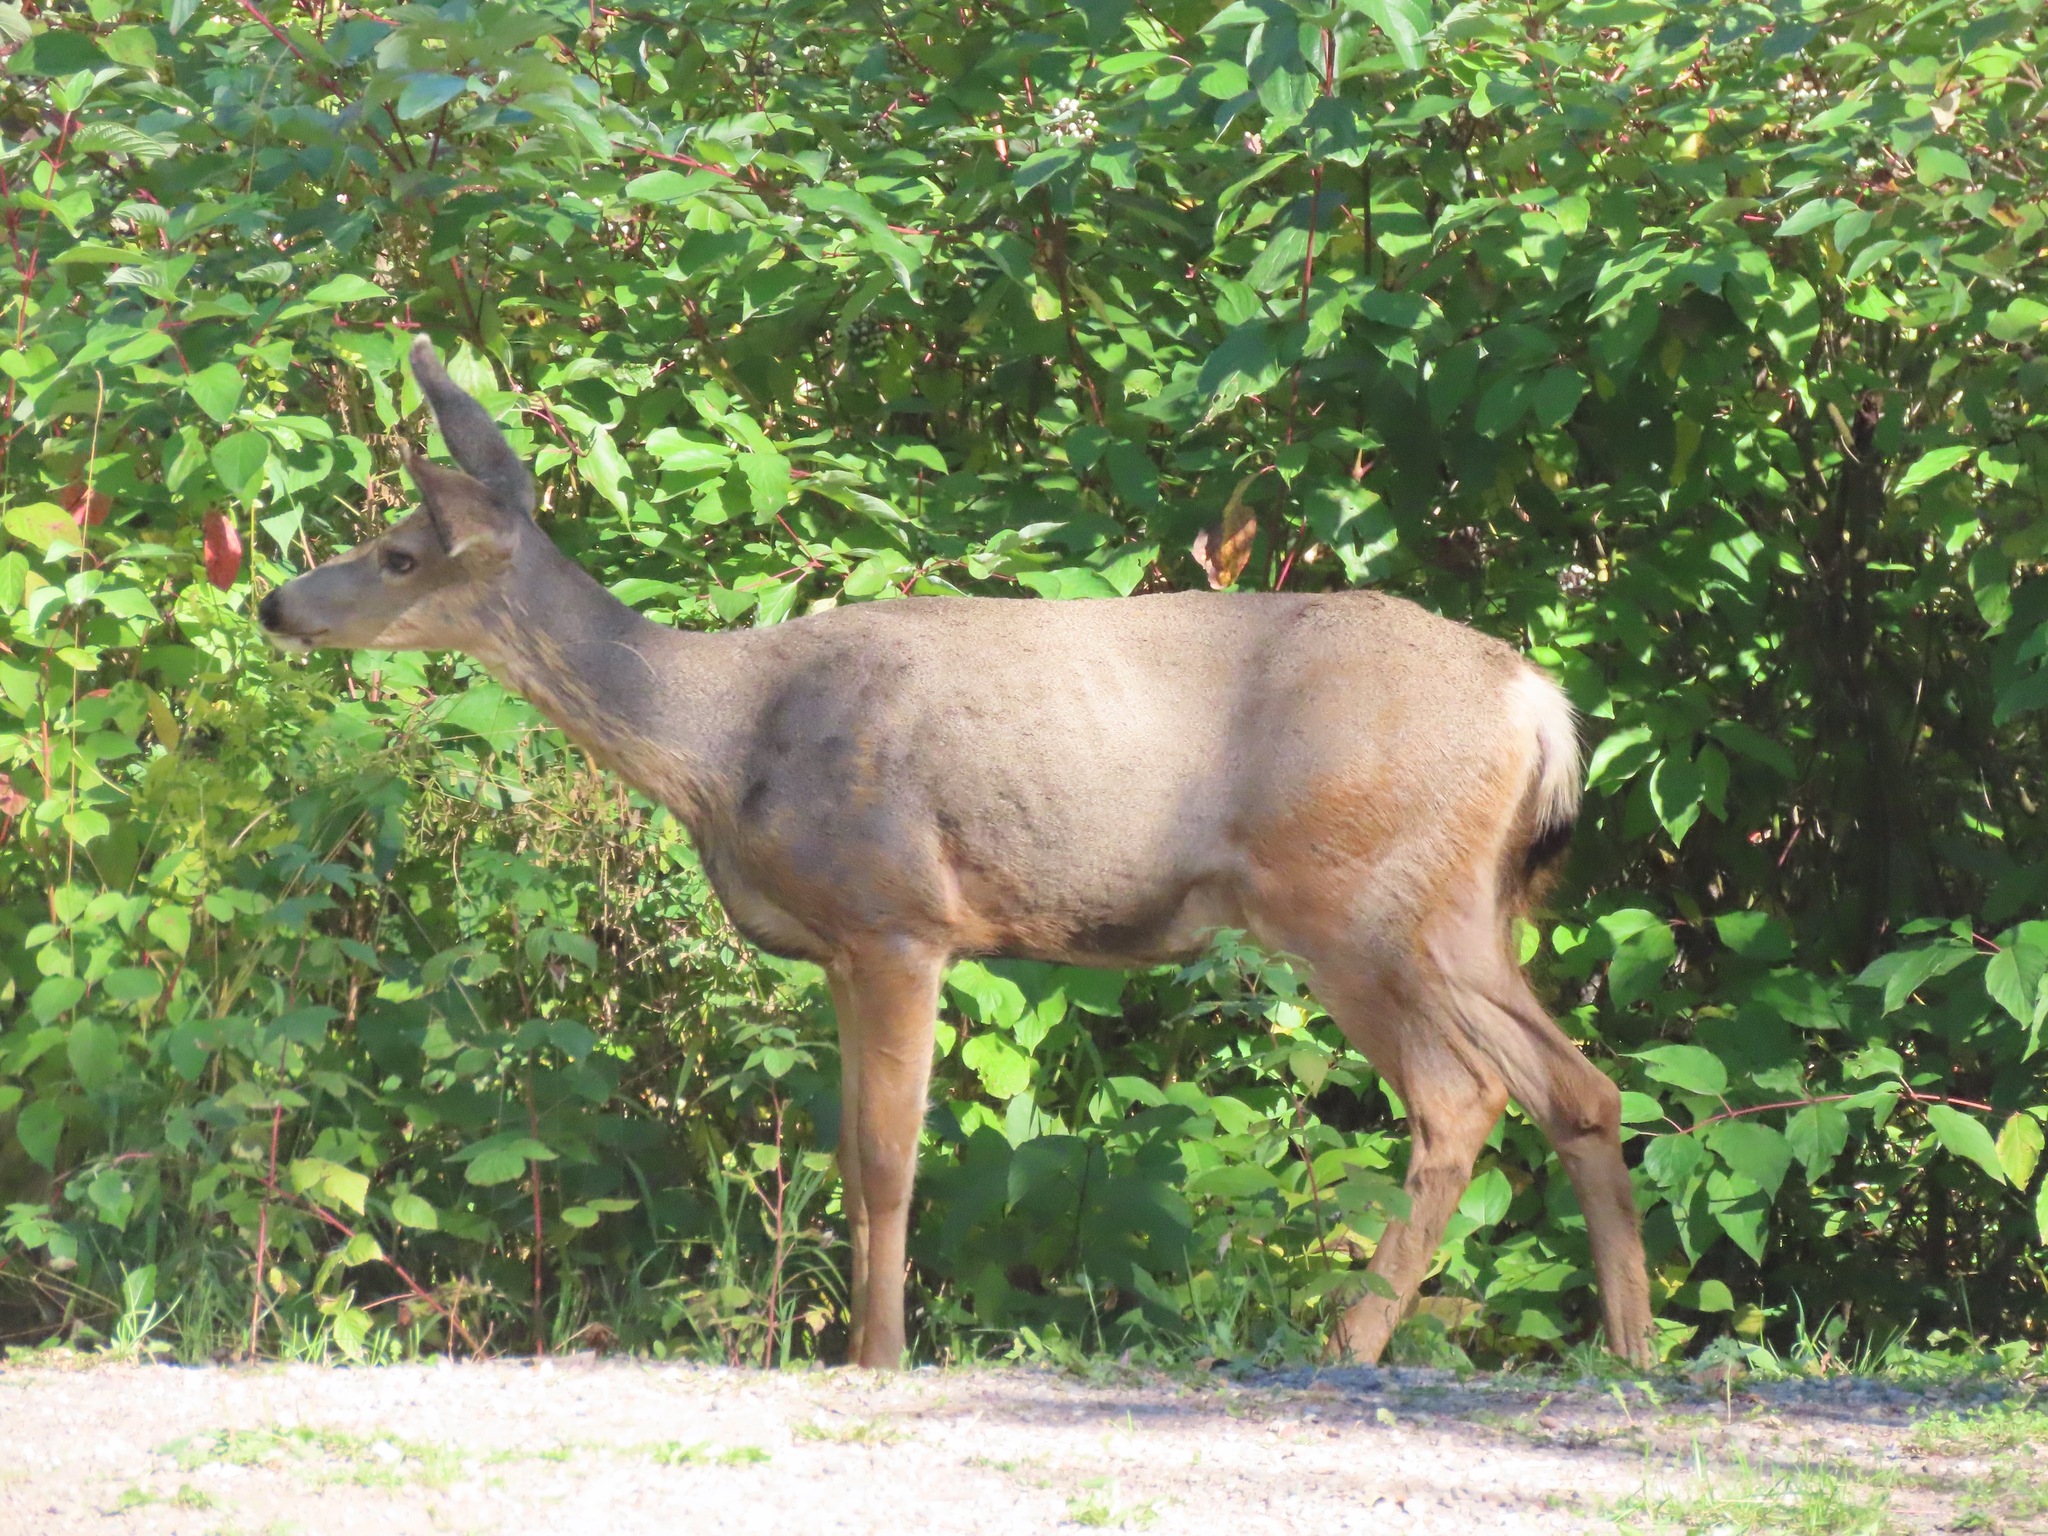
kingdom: Animalia
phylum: Chordata
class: Mammalia
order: Artiodactyla
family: Cervidae
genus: Odocoileus
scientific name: Odocoileus hemionus
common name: Mule deer
